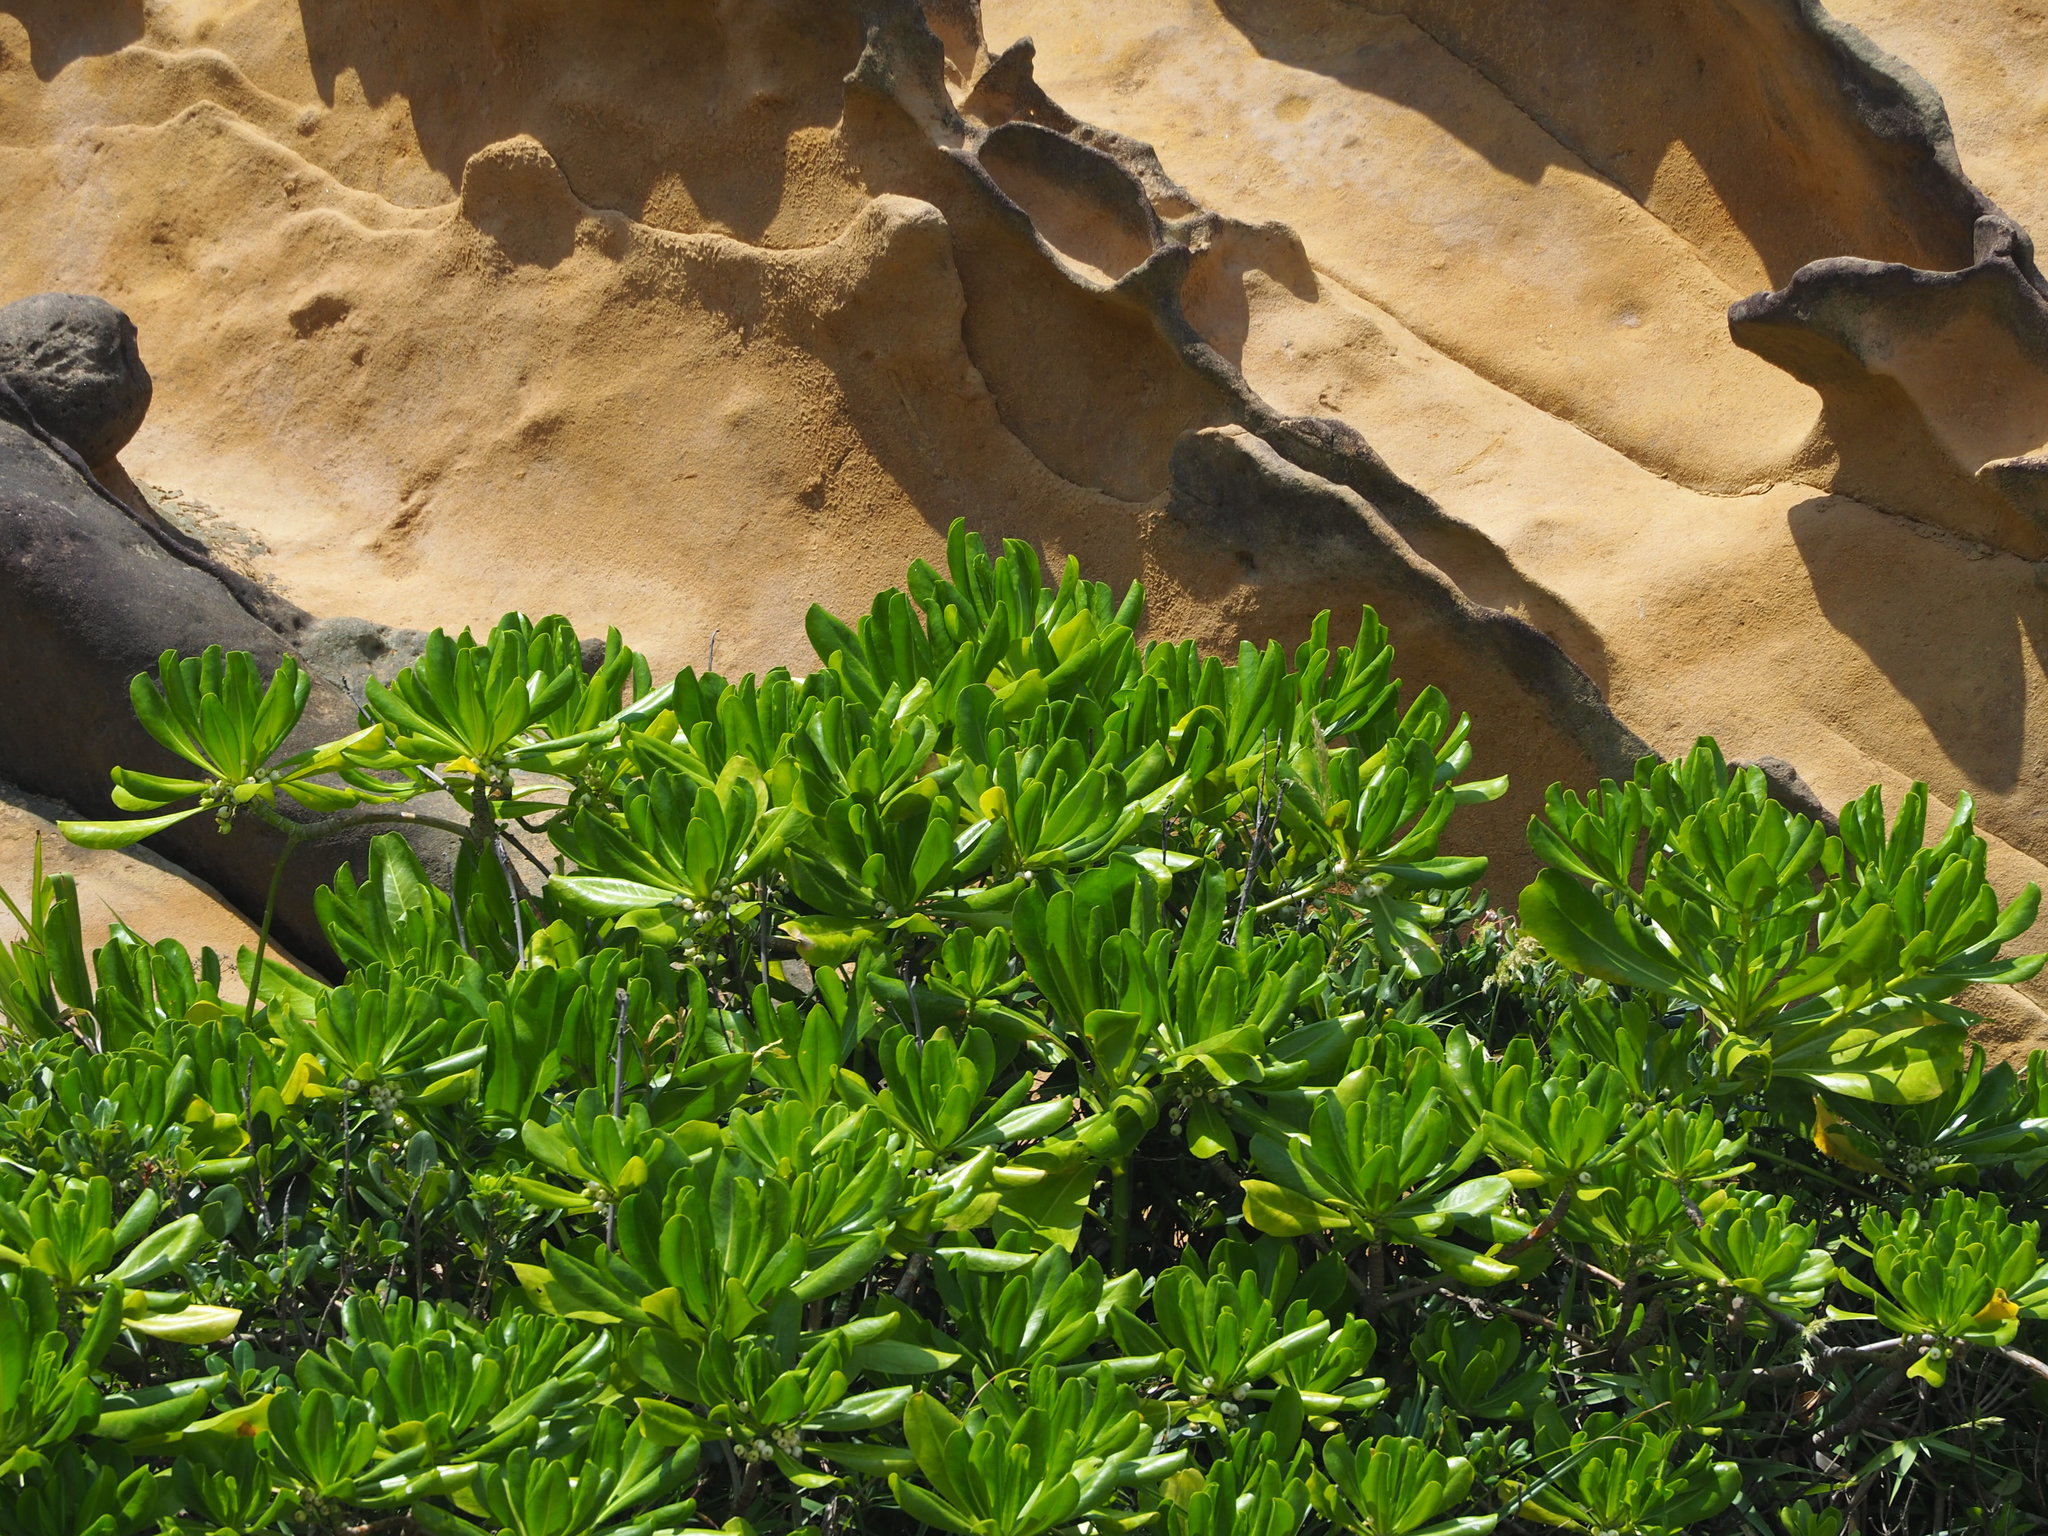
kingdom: Plantae
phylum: Tracheophyta
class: Magnoliopsida
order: Asterales
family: Goodeniaceae
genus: Scaevola
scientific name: Scaevola taccada
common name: Sea lettucetree
